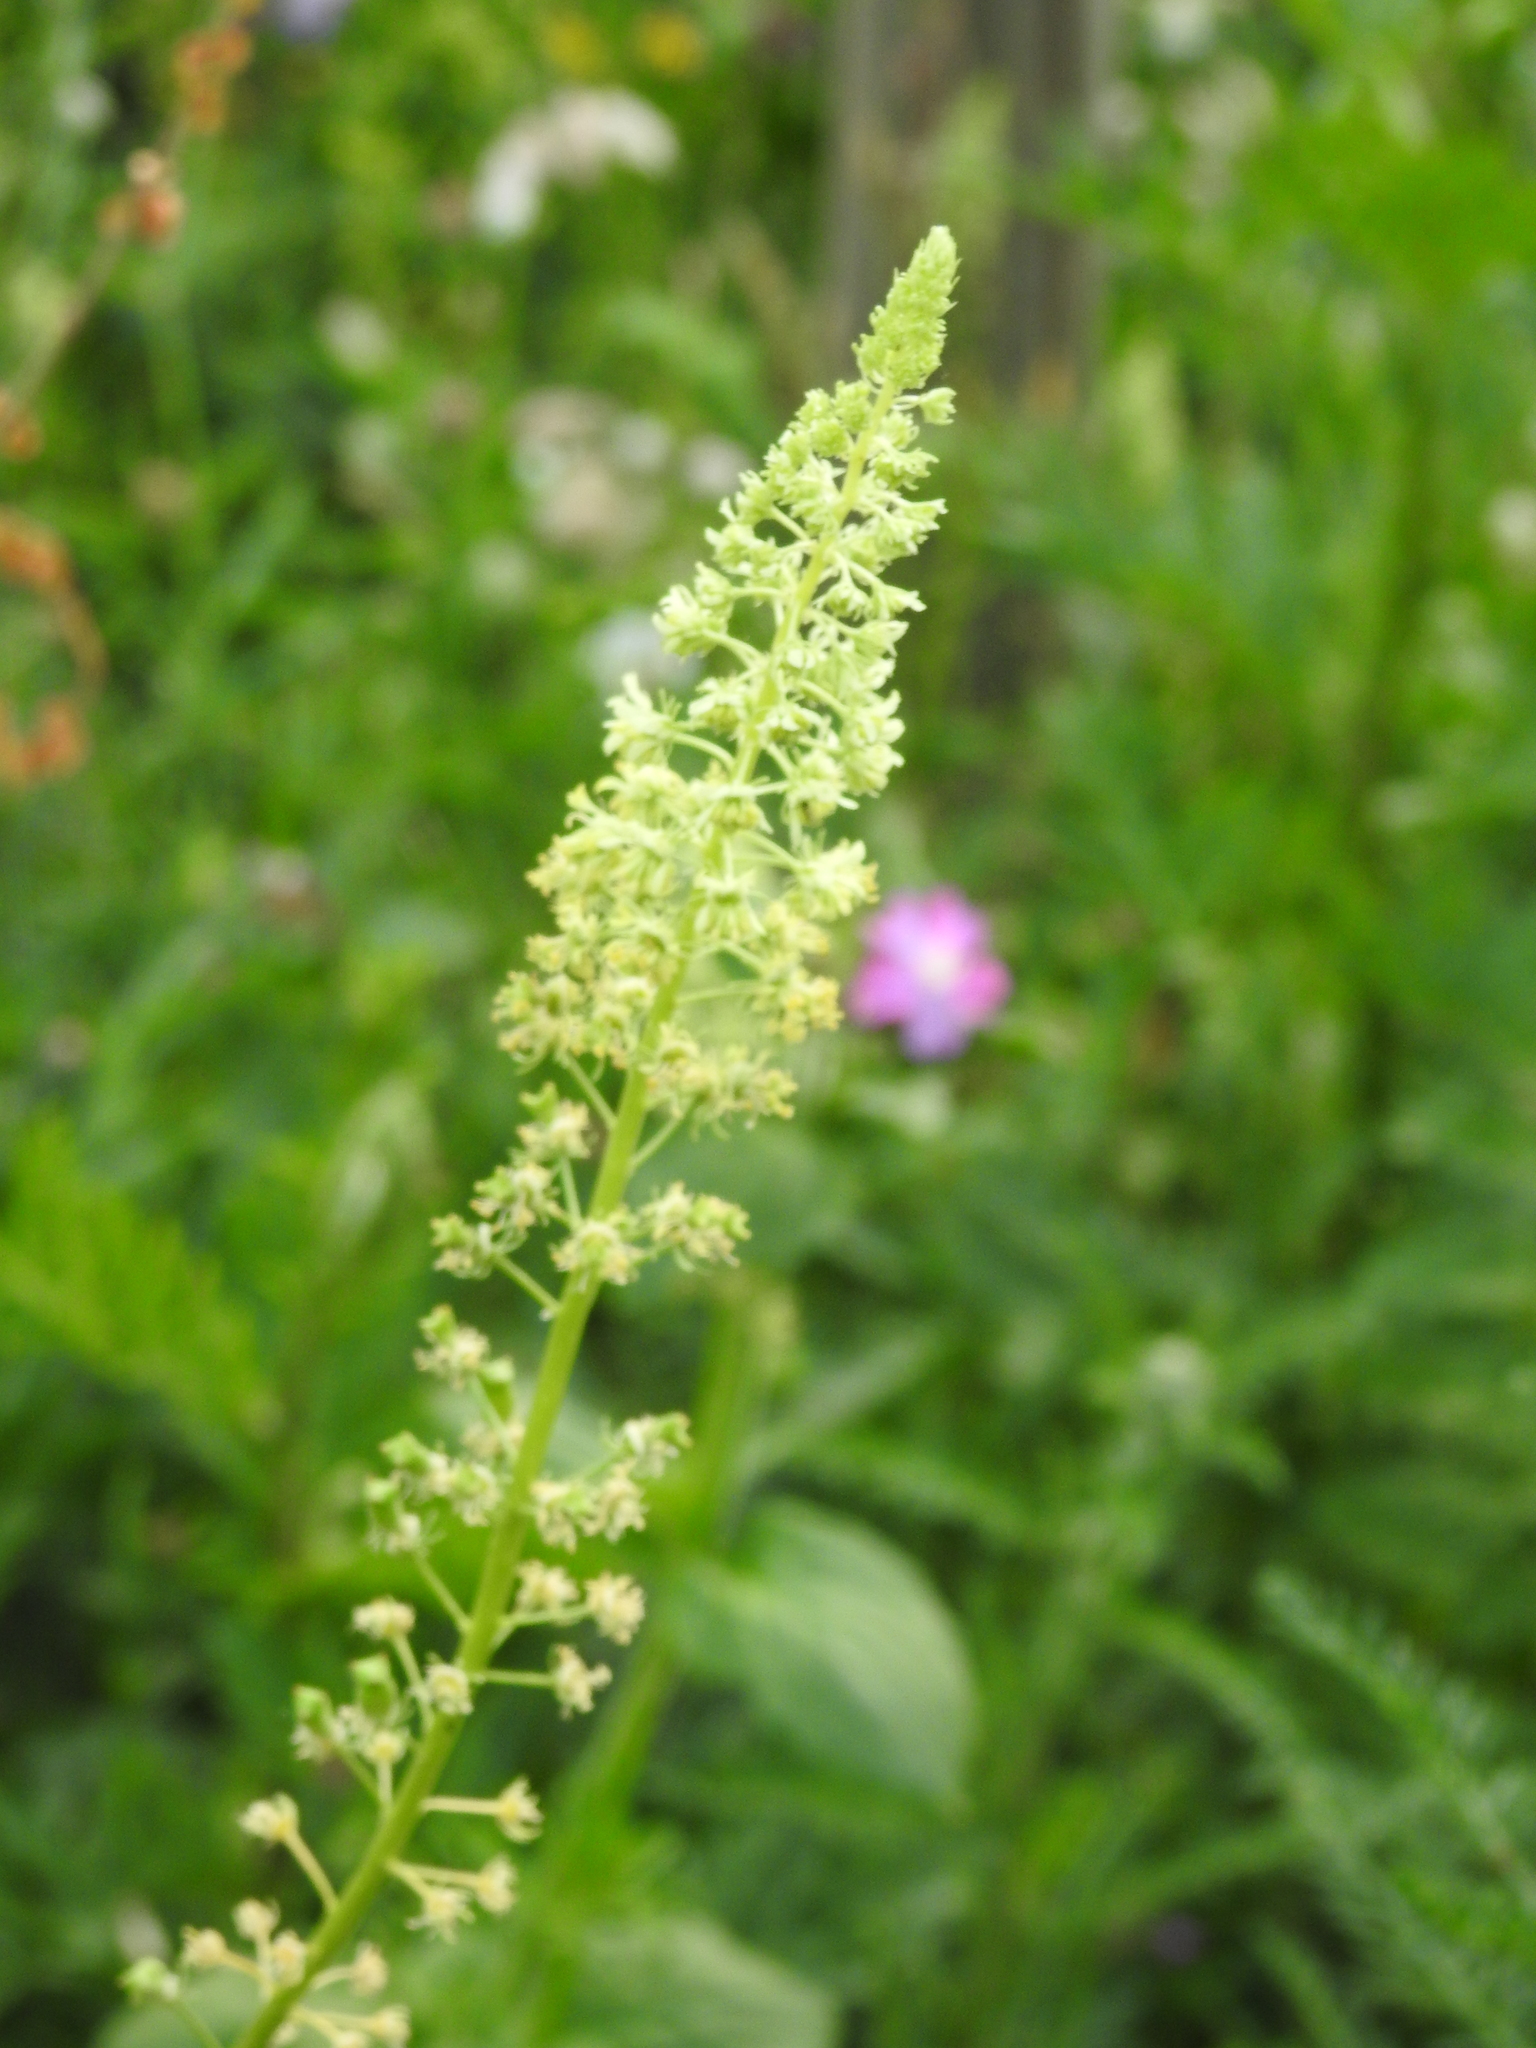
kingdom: Plantae
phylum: Tracheophyta
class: Magnoliopsida
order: Brassicales
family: Resedaceae
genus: Reseda
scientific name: Reseda lutea
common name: Wild mignonette
